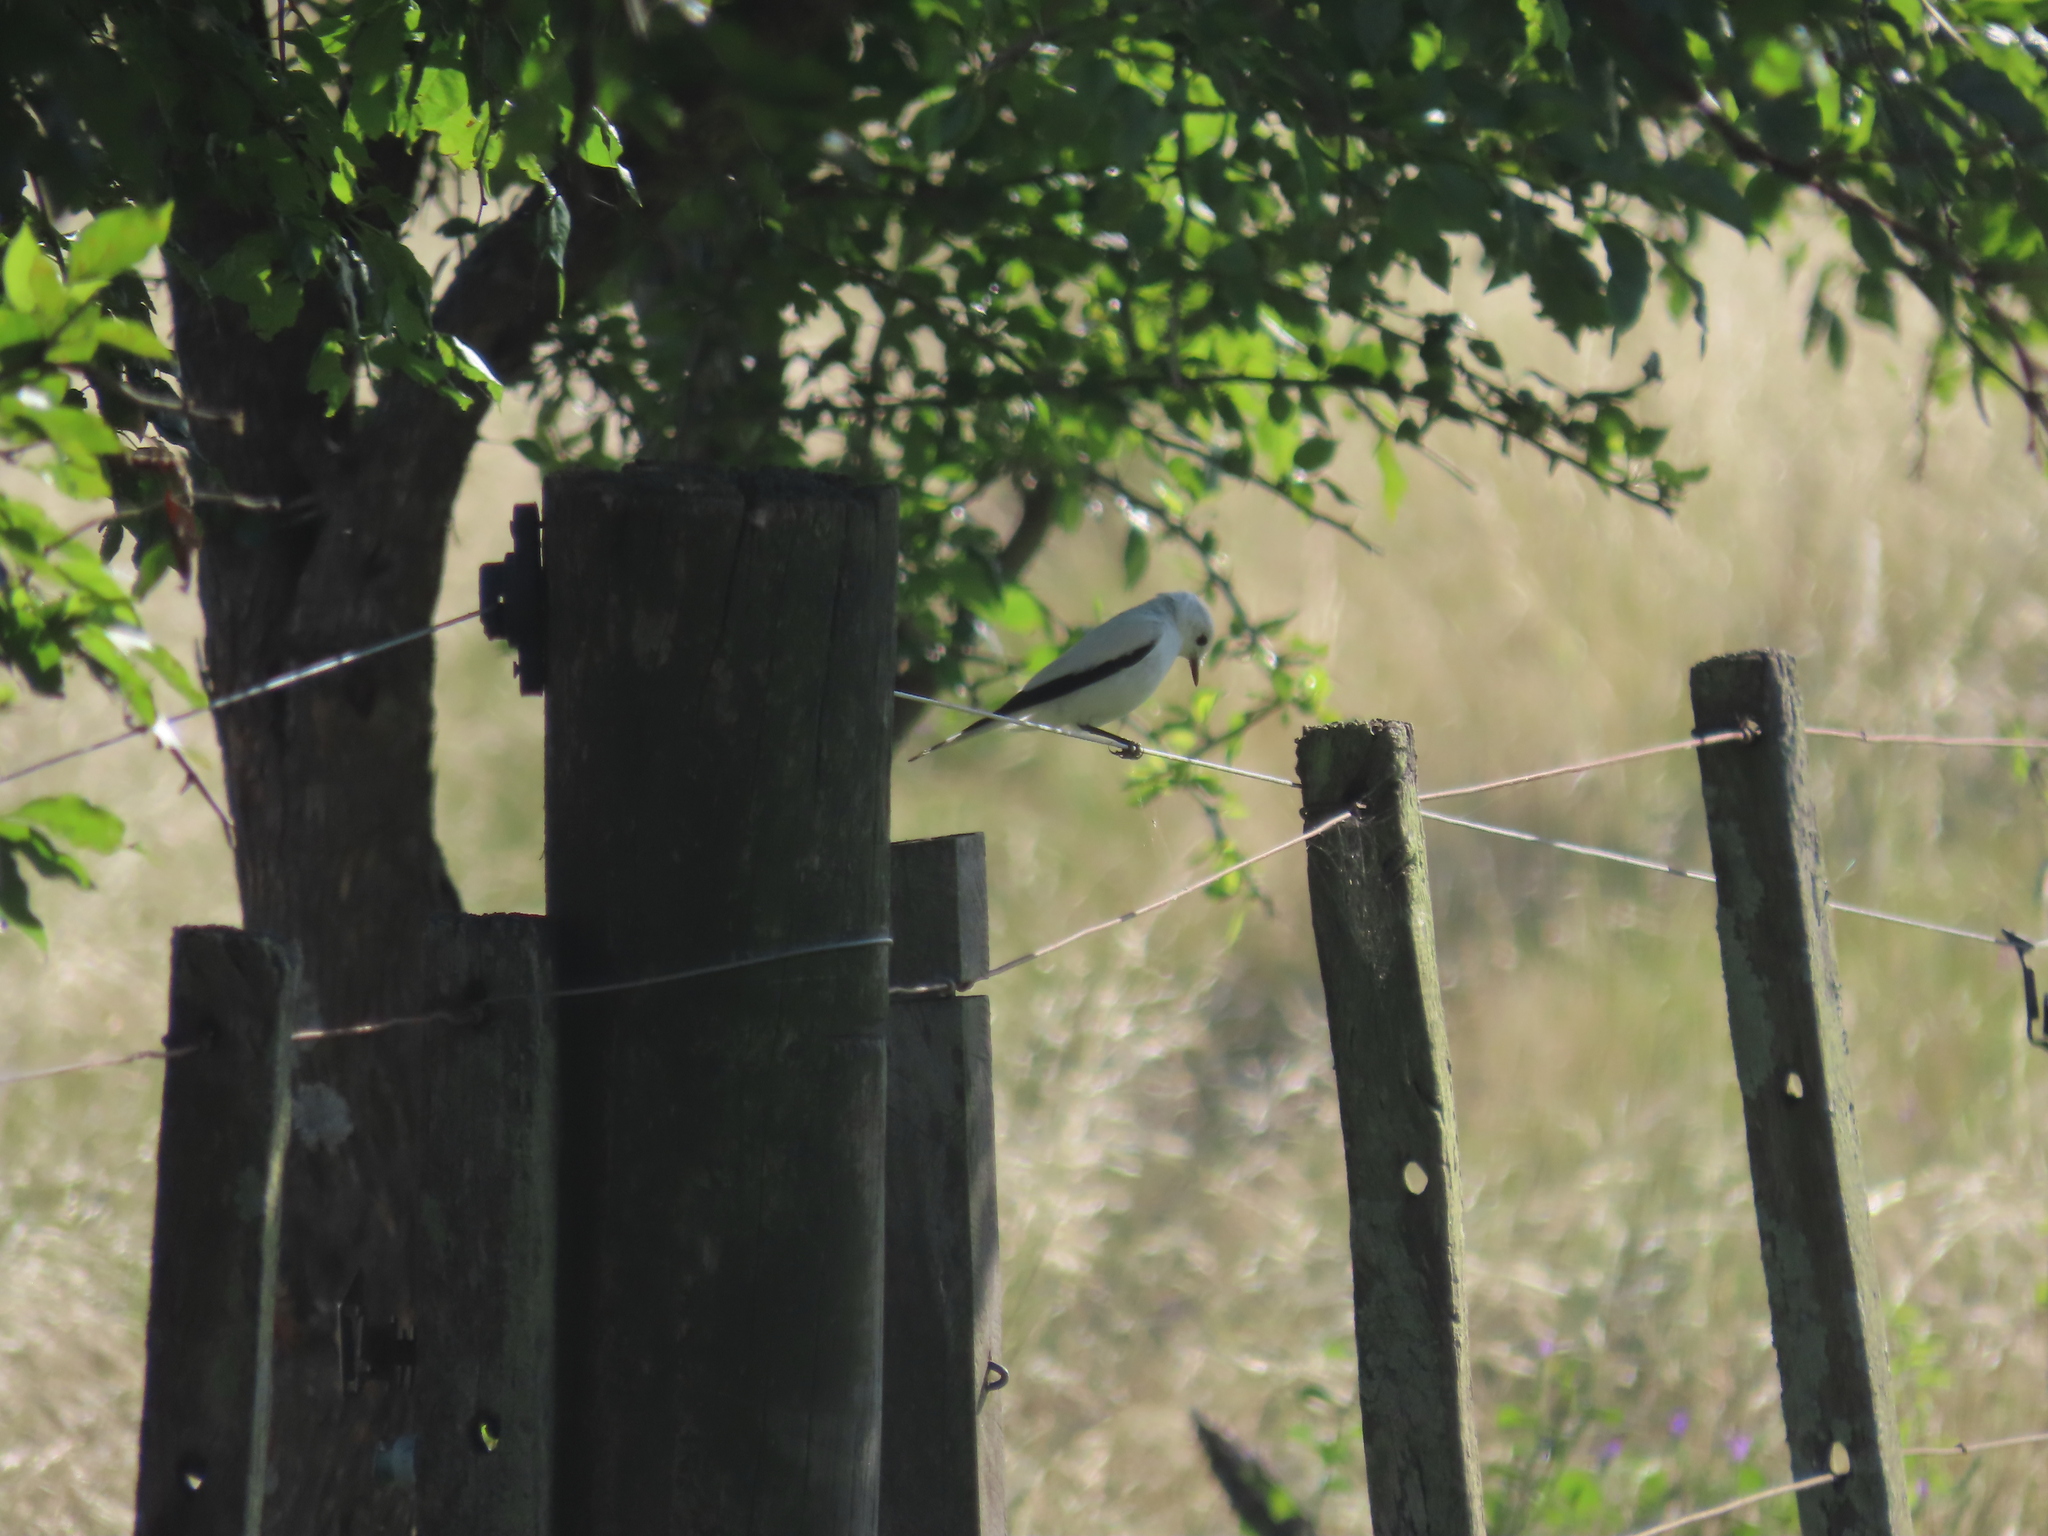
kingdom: Animalia
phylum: Chordata
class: Aves
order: Passeriformes
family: Tyrannidae
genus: Xolmis
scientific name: Xolmis irupero
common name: White monjita
